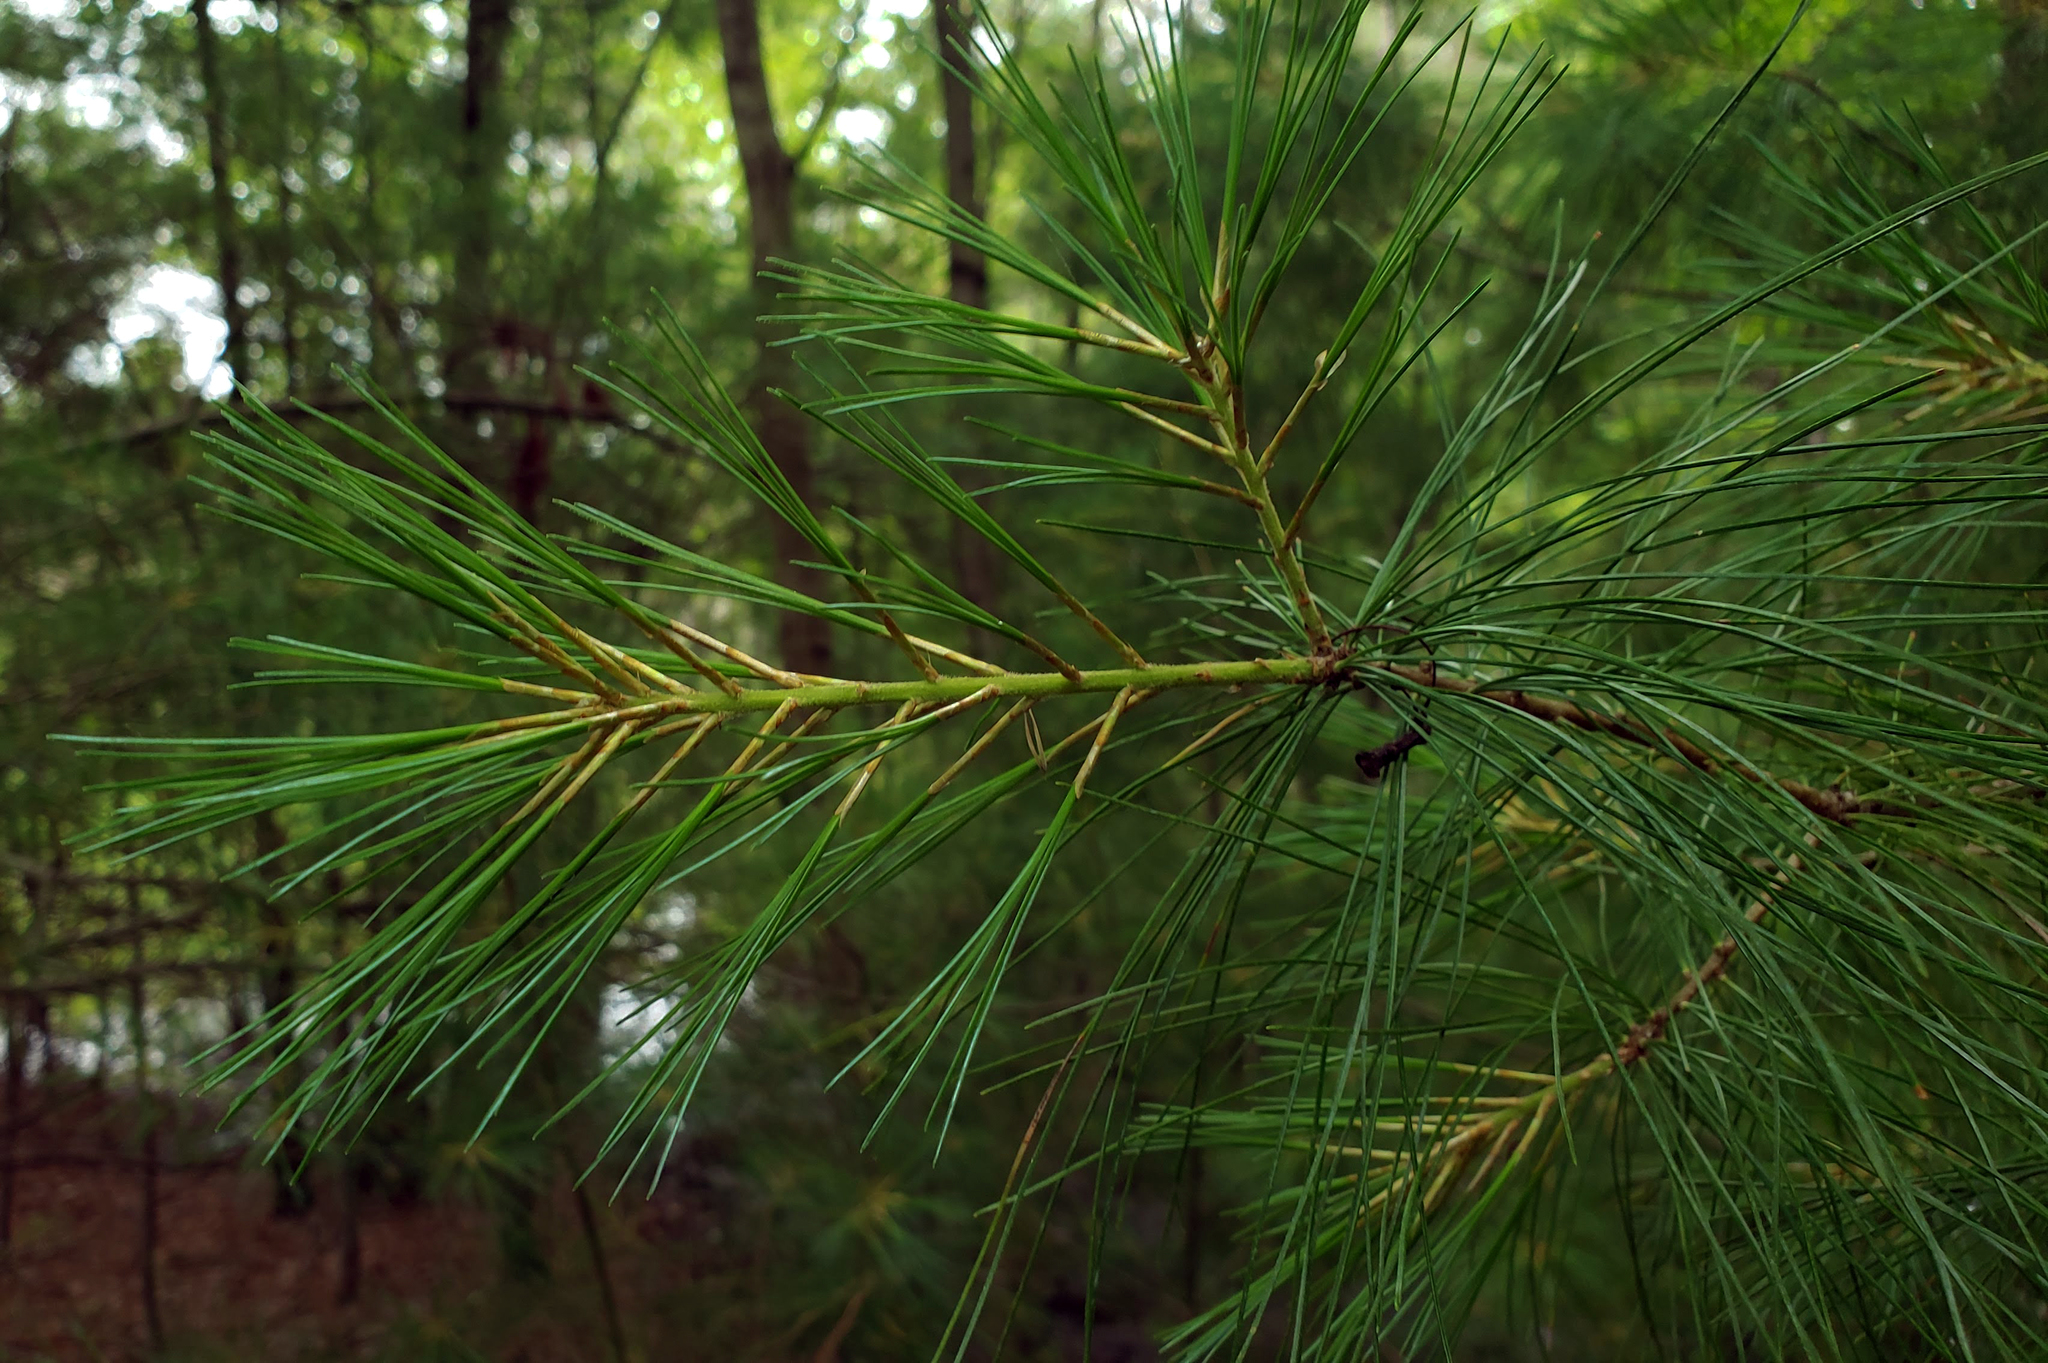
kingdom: Plantae
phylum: Tracheophyta
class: Pinopsida
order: Pinales
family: Pinaceae
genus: Pinus
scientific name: Pinus strobus
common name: Weymouth pine
